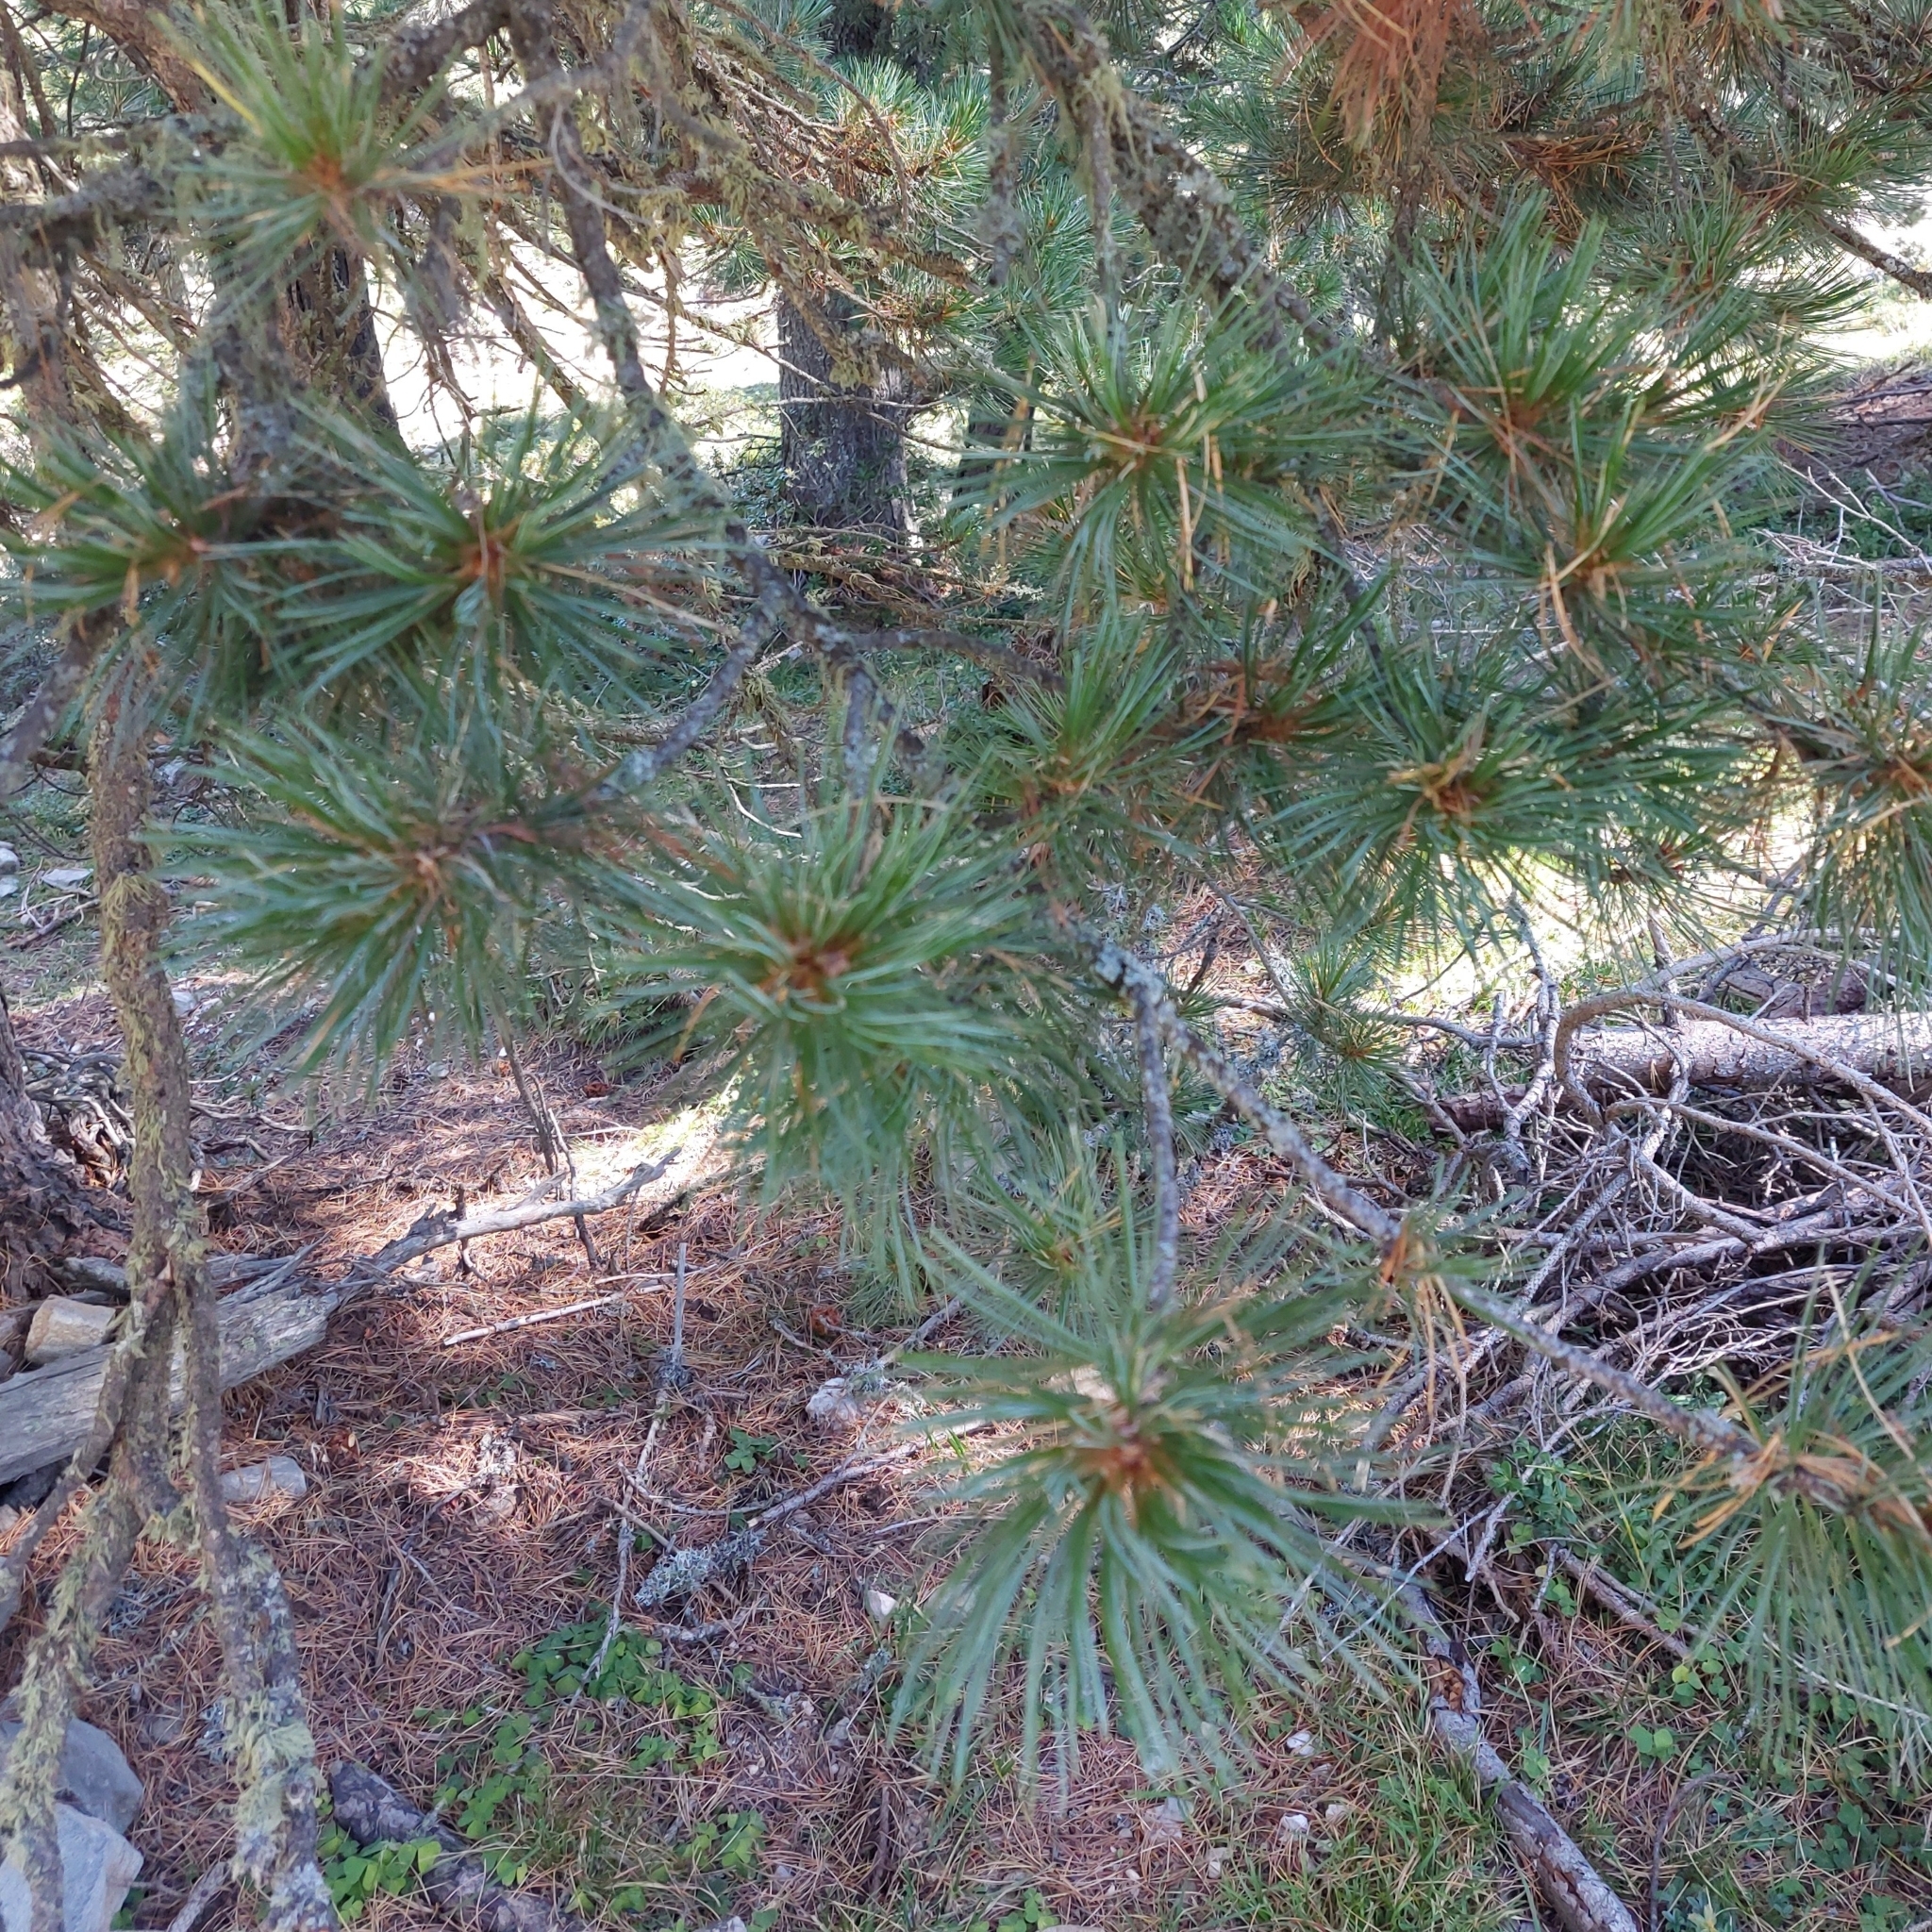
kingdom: Plantae
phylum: Tracheophyta
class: Pinopsida
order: Pinales
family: Pinaceae
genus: Pinus
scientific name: Pinus cembra
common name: Arolla pine
